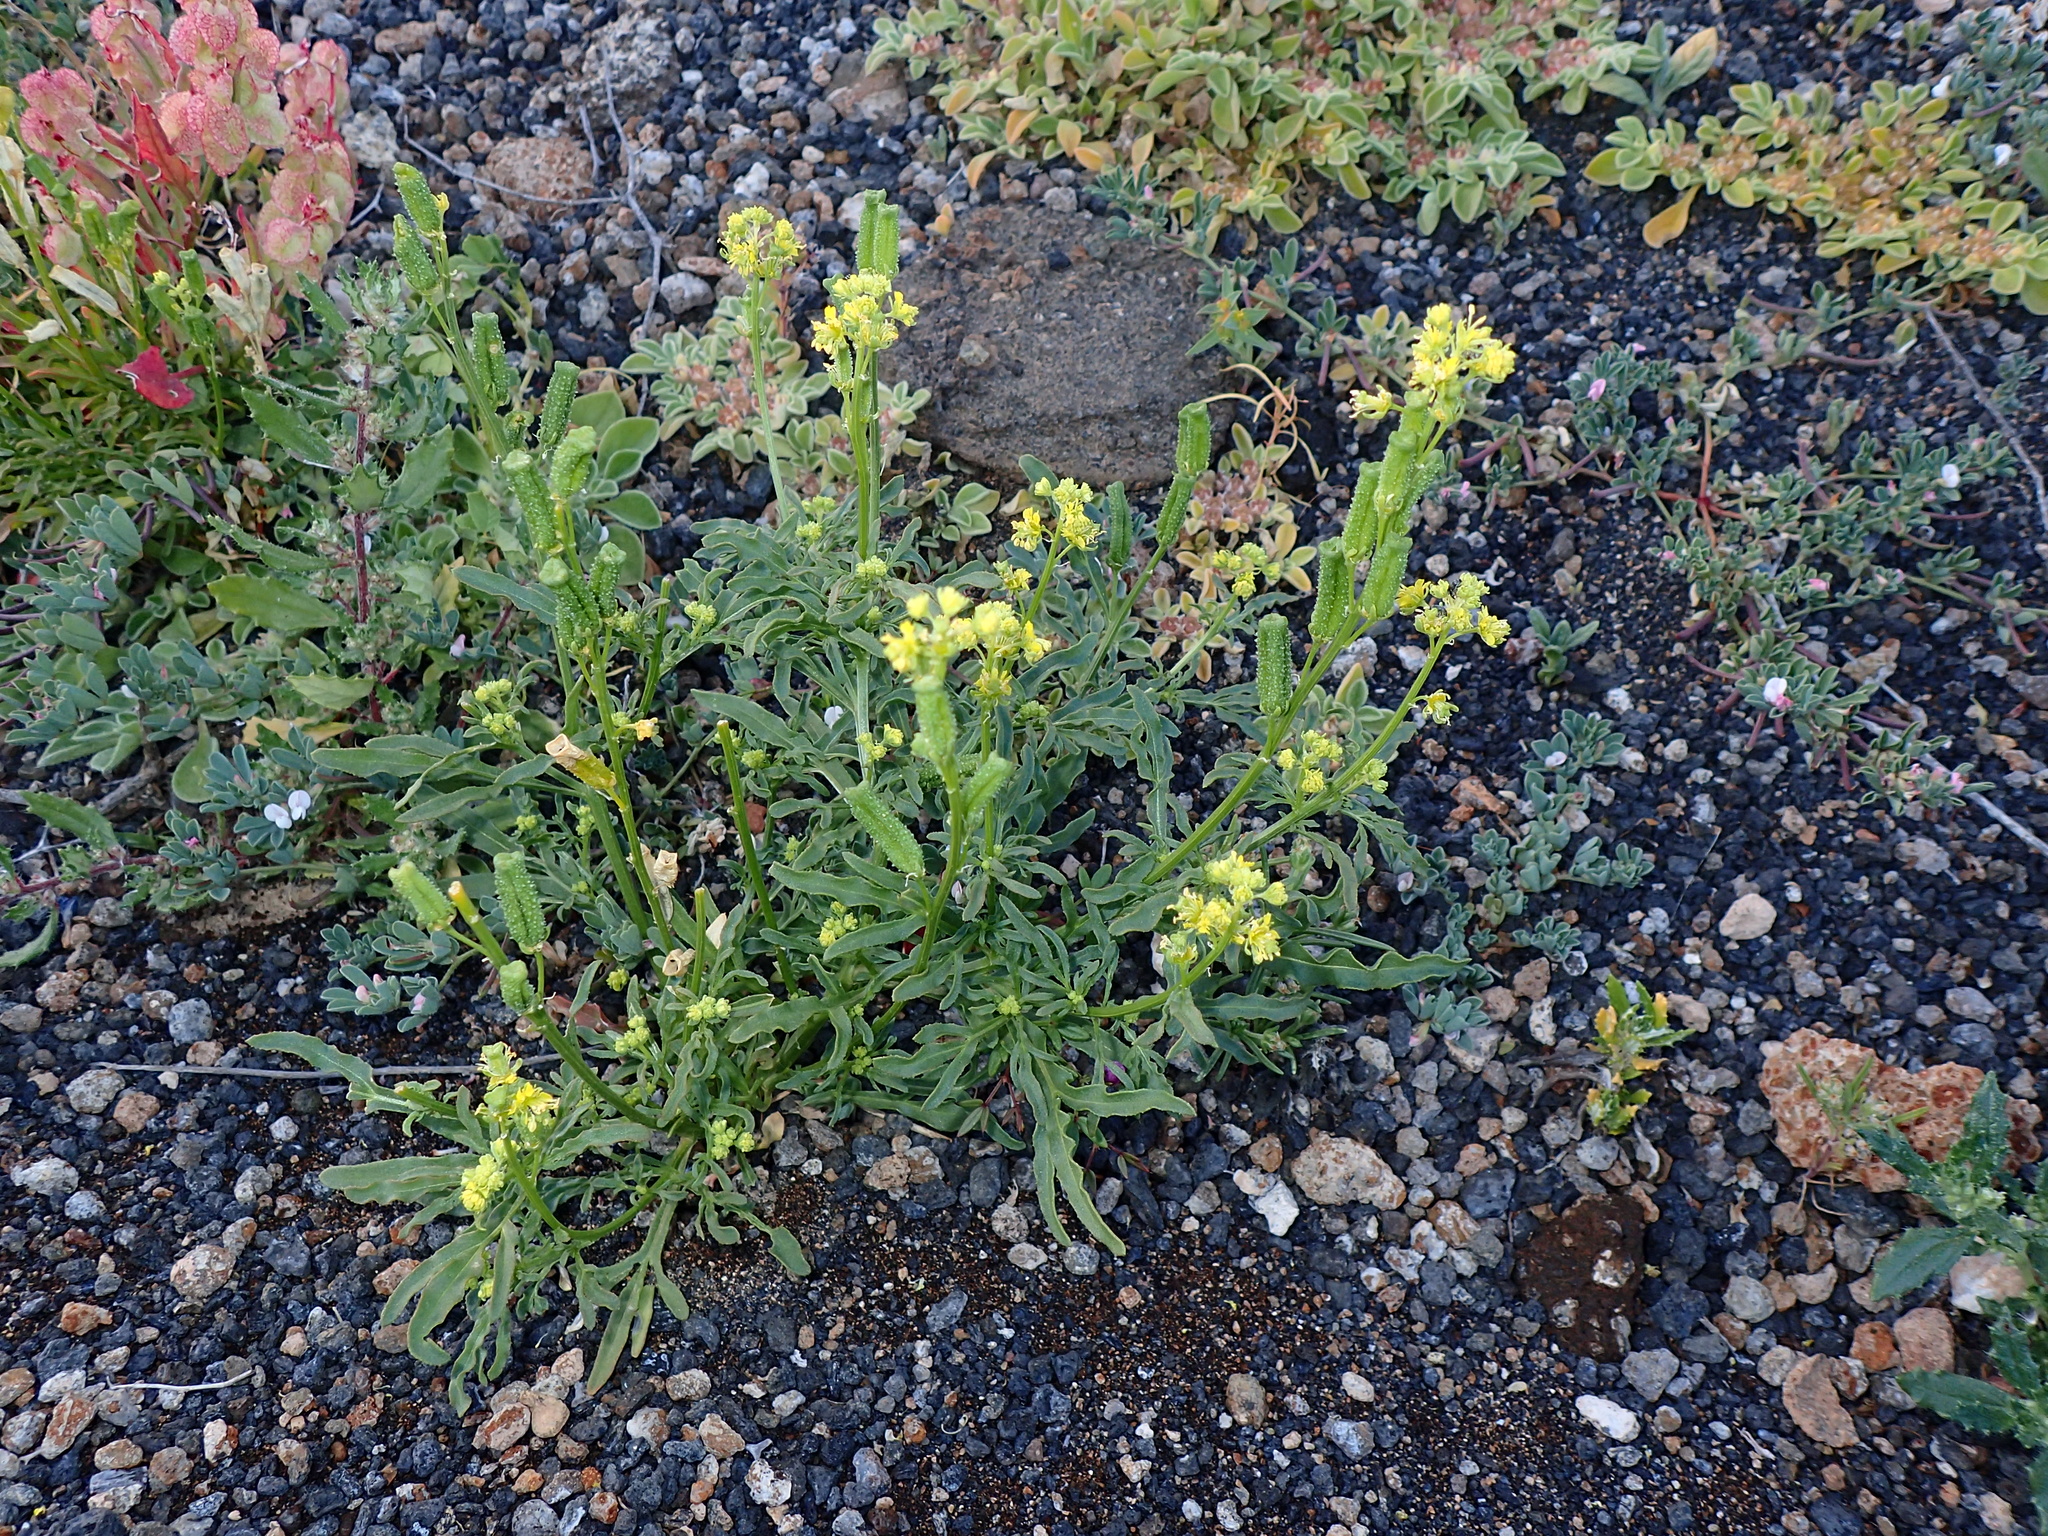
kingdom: Plantae
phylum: Tracheophyta
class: Magnoliopsida
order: Brassicales
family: Resedaceae
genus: Reseda
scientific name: Reseda crystallina
